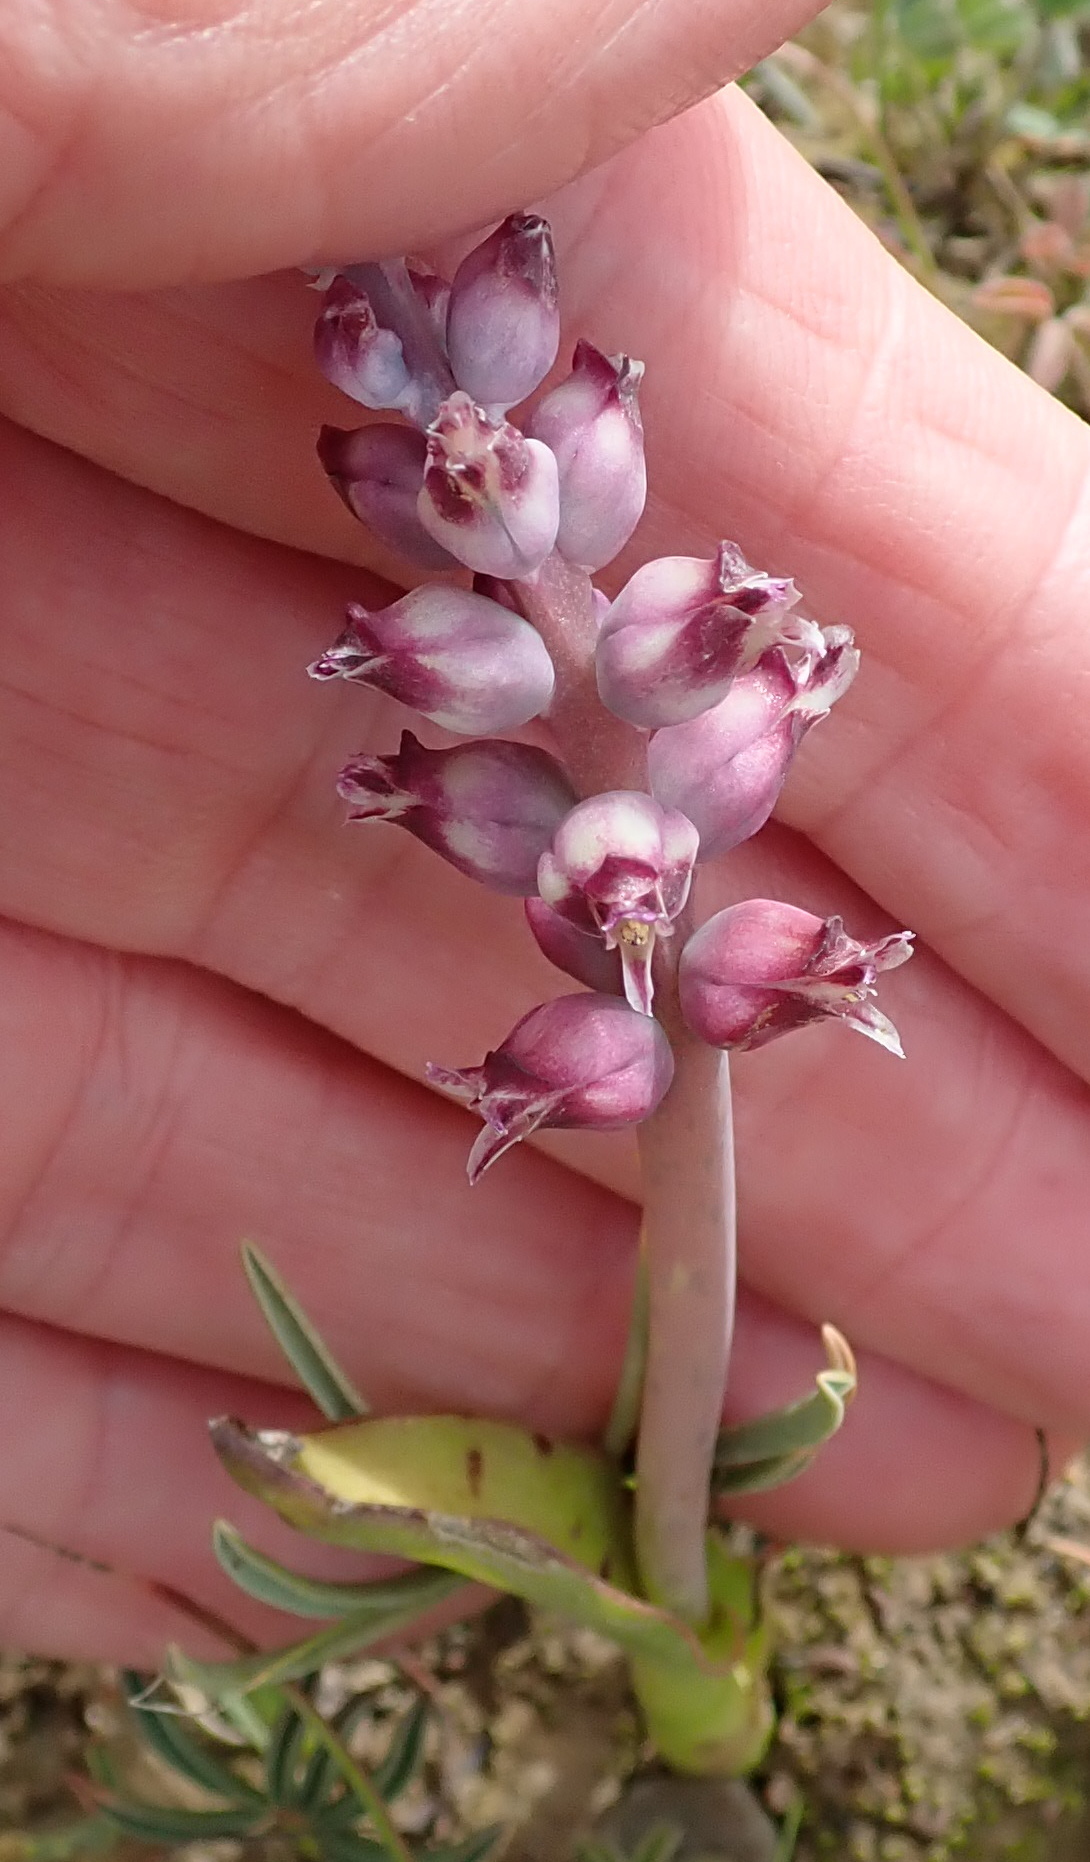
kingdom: Plantae
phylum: Tracheophyta
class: Liliopsida
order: Asparagales
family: Asparagaceae
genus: Lachenalia
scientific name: Lachenalia elegans
